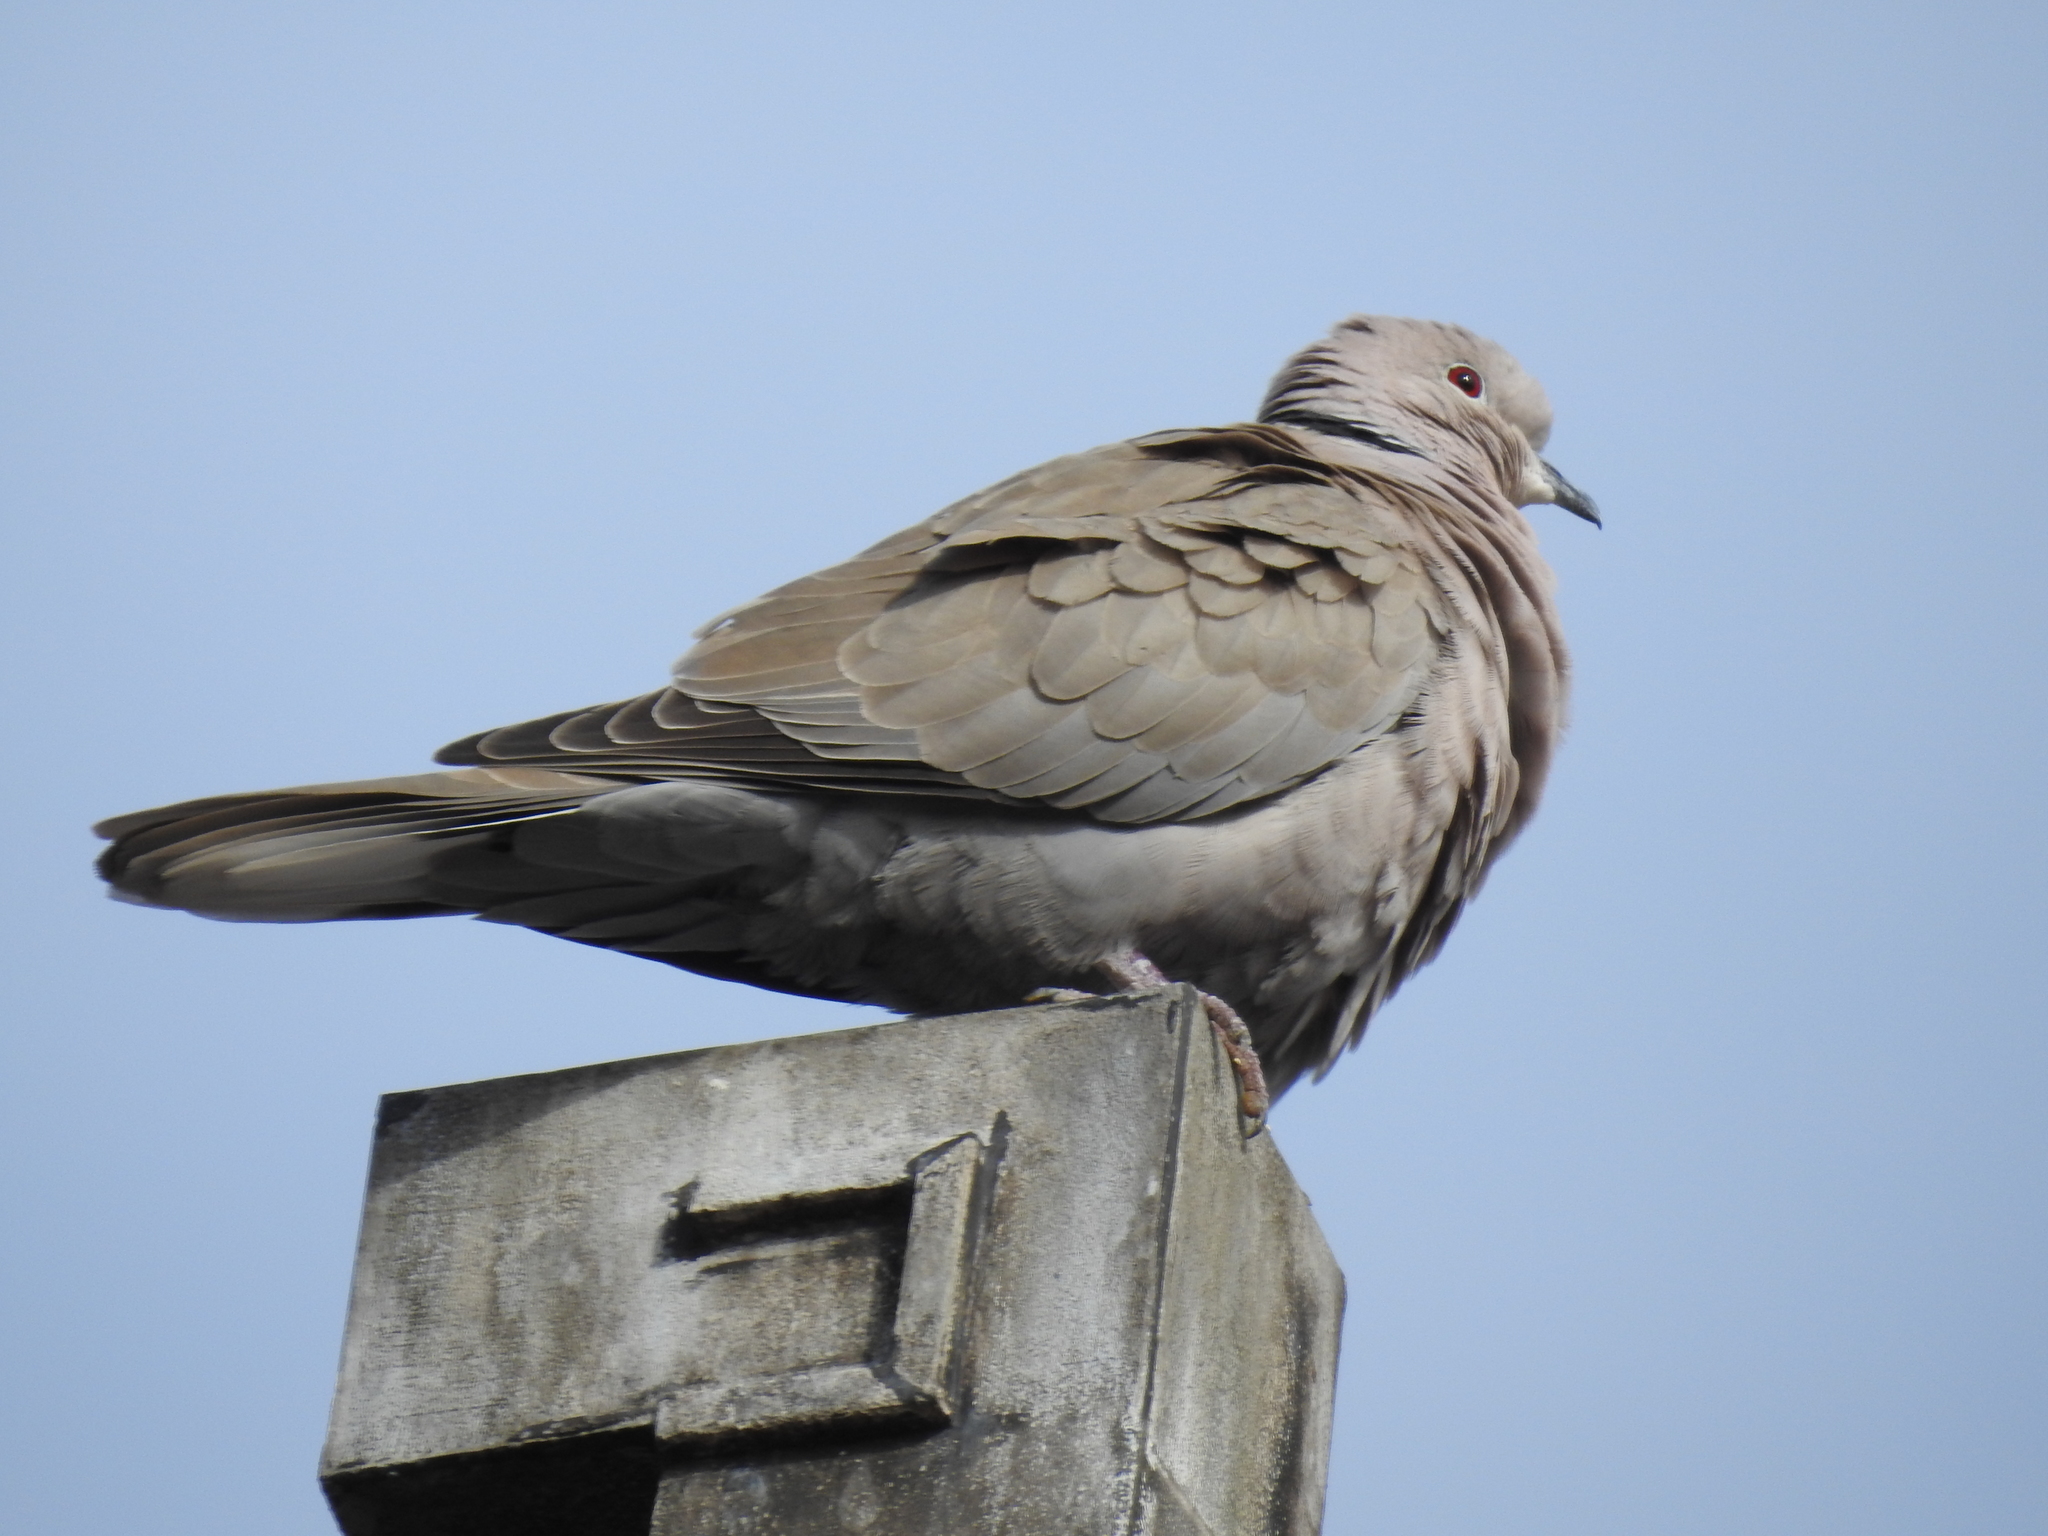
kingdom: Animalia
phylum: Chordata
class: Aves
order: Columbiformes
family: Columbidae
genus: Streptopelia
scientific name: Streptopelia decaocto
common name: Eurasian collared dove
